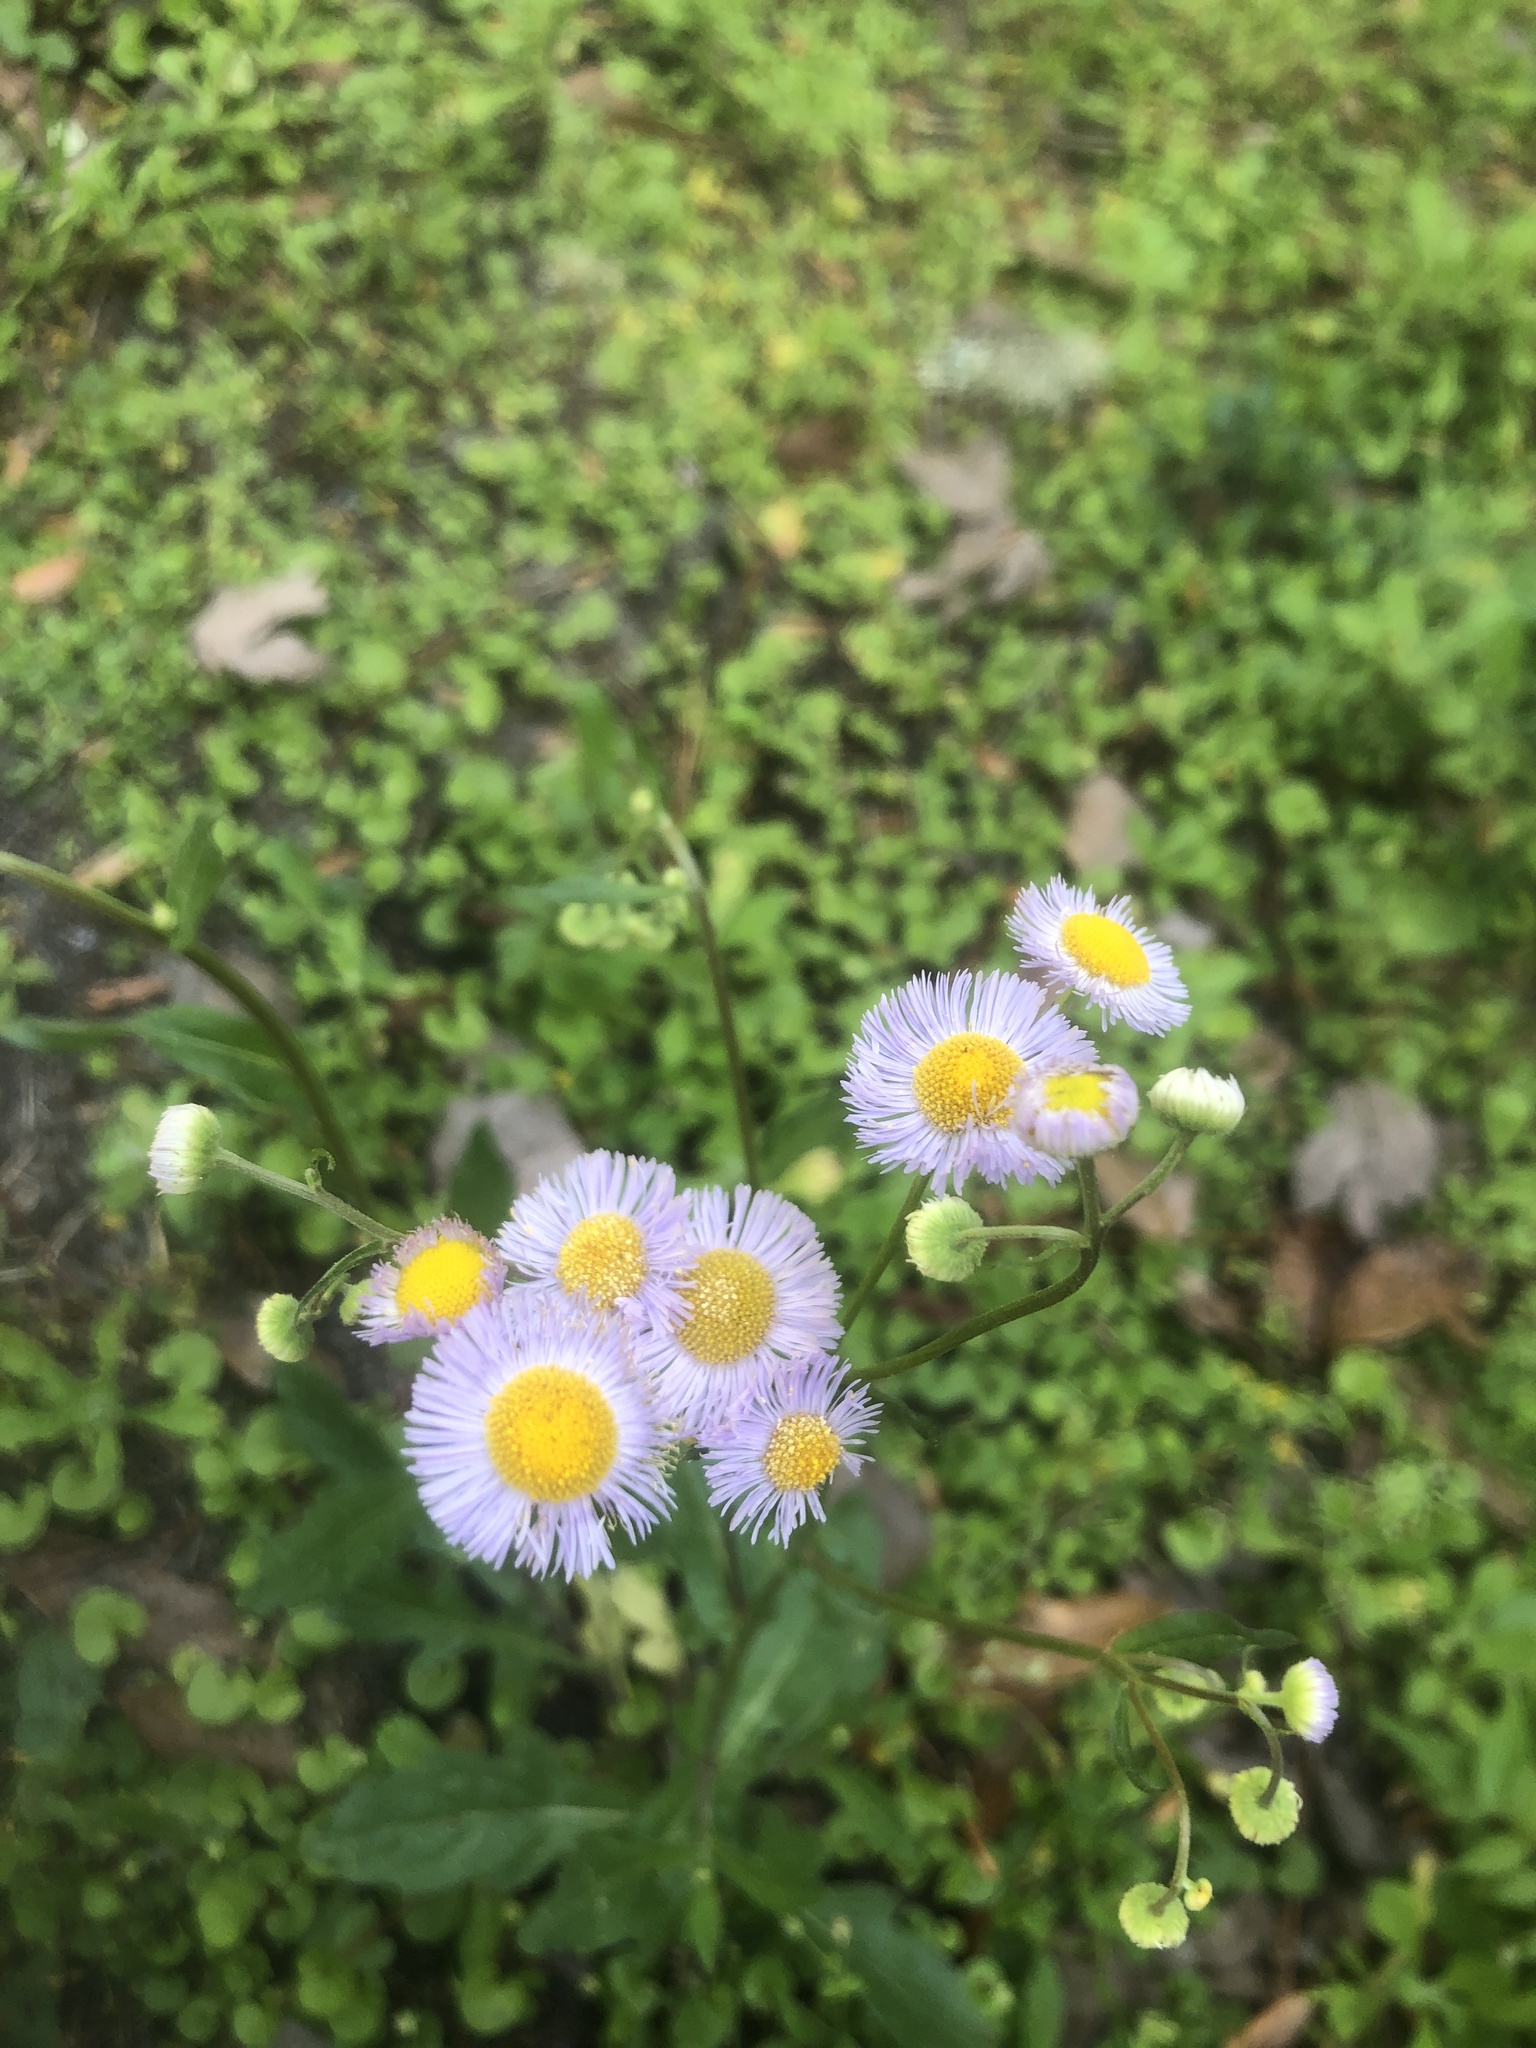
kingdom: Plantae
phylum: Tracheophyta
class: Magnoliopsida
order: Asterales
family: Asteraceae
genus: Erigeron
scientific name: Erigeron quercifolius
